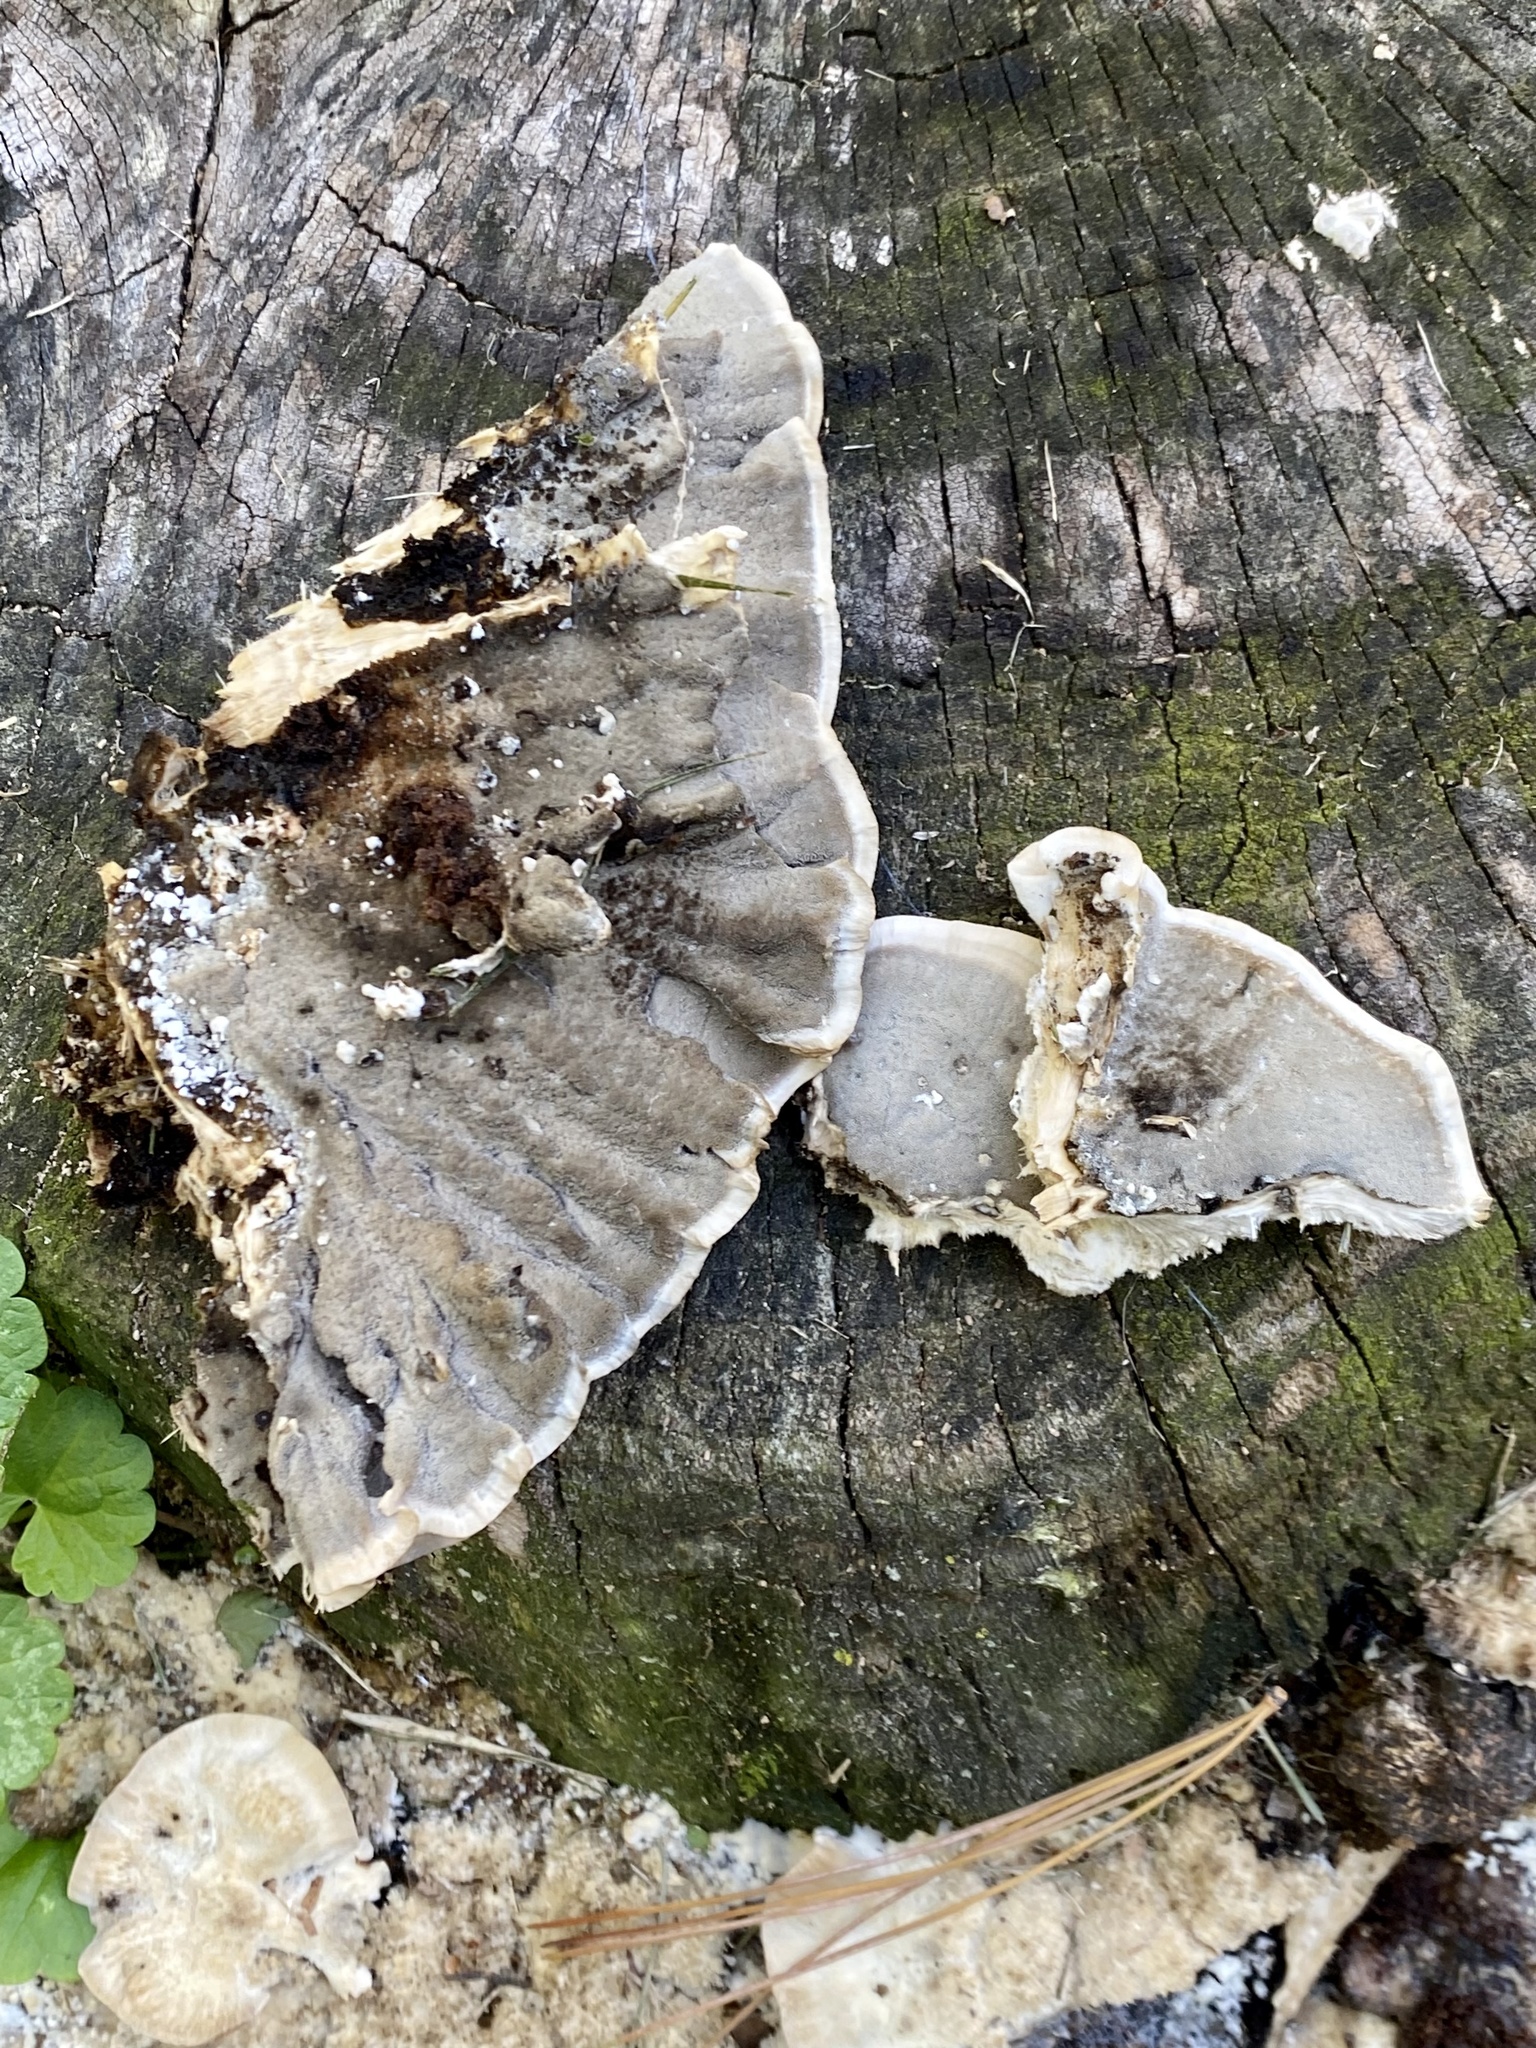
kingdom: Fungi
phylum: Basidiomycota
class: Agaricomycetes
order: Polyporales
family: Phanerochaetaceae
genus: Bjerkandera
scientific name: Bjerkandera adusta
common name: Smoky bracket
